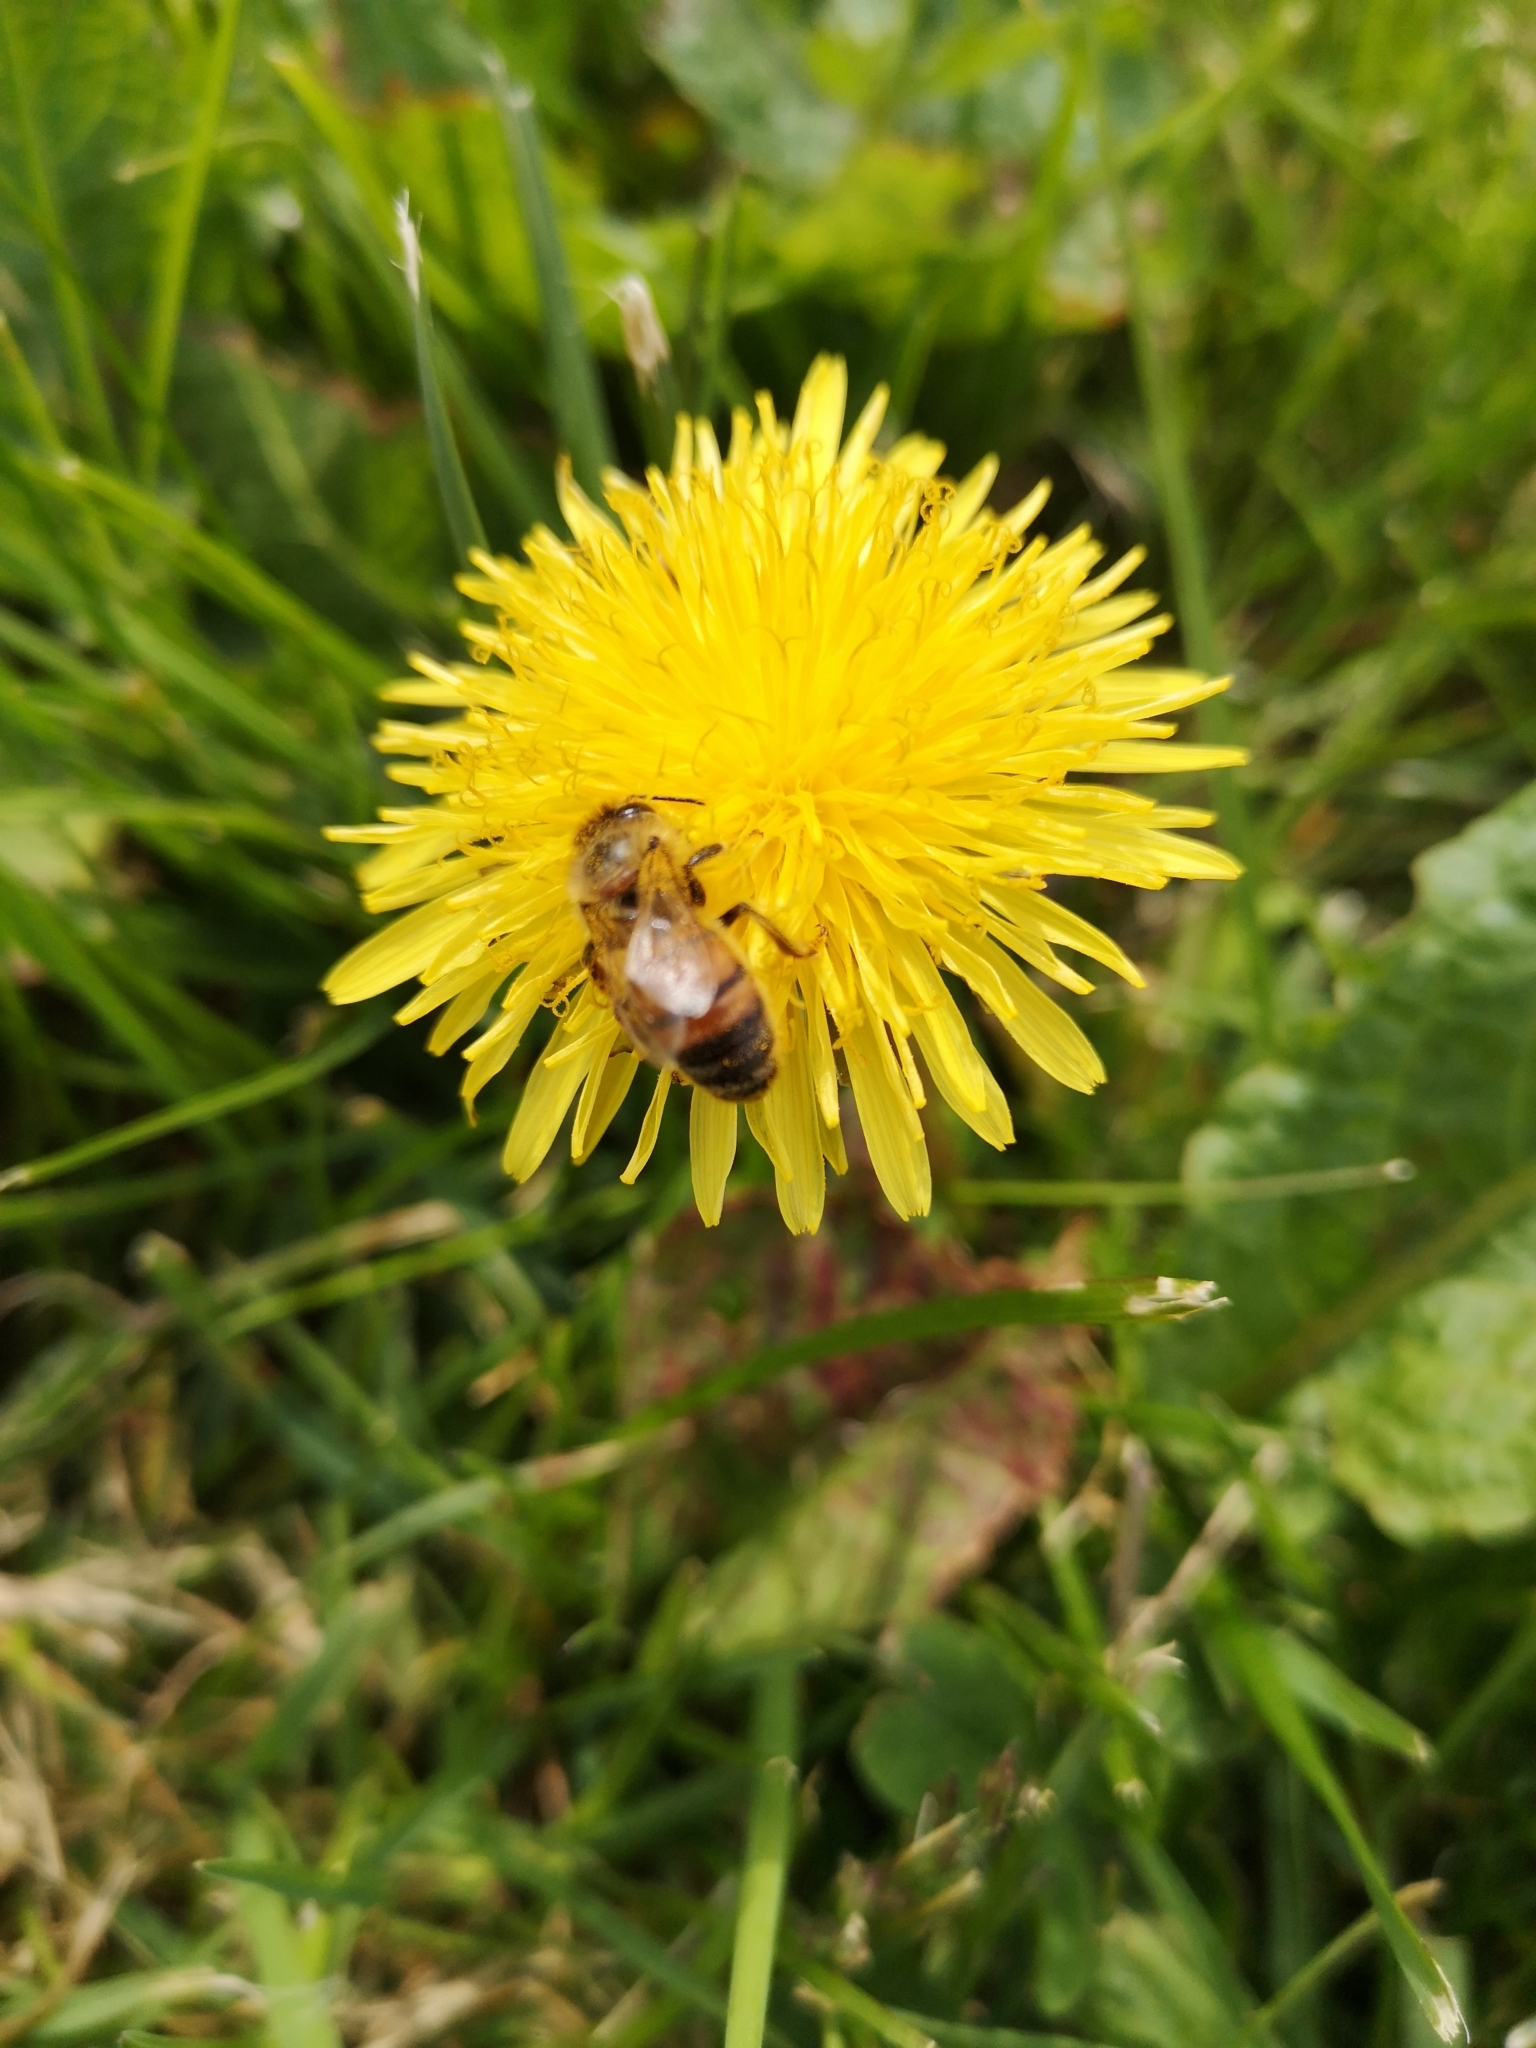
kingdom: Animalia
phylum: Arthropoda
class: Insecta
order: Hymenoptera
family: Apidae
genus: Apis
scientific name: Apis mellifera
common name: Honey bee
